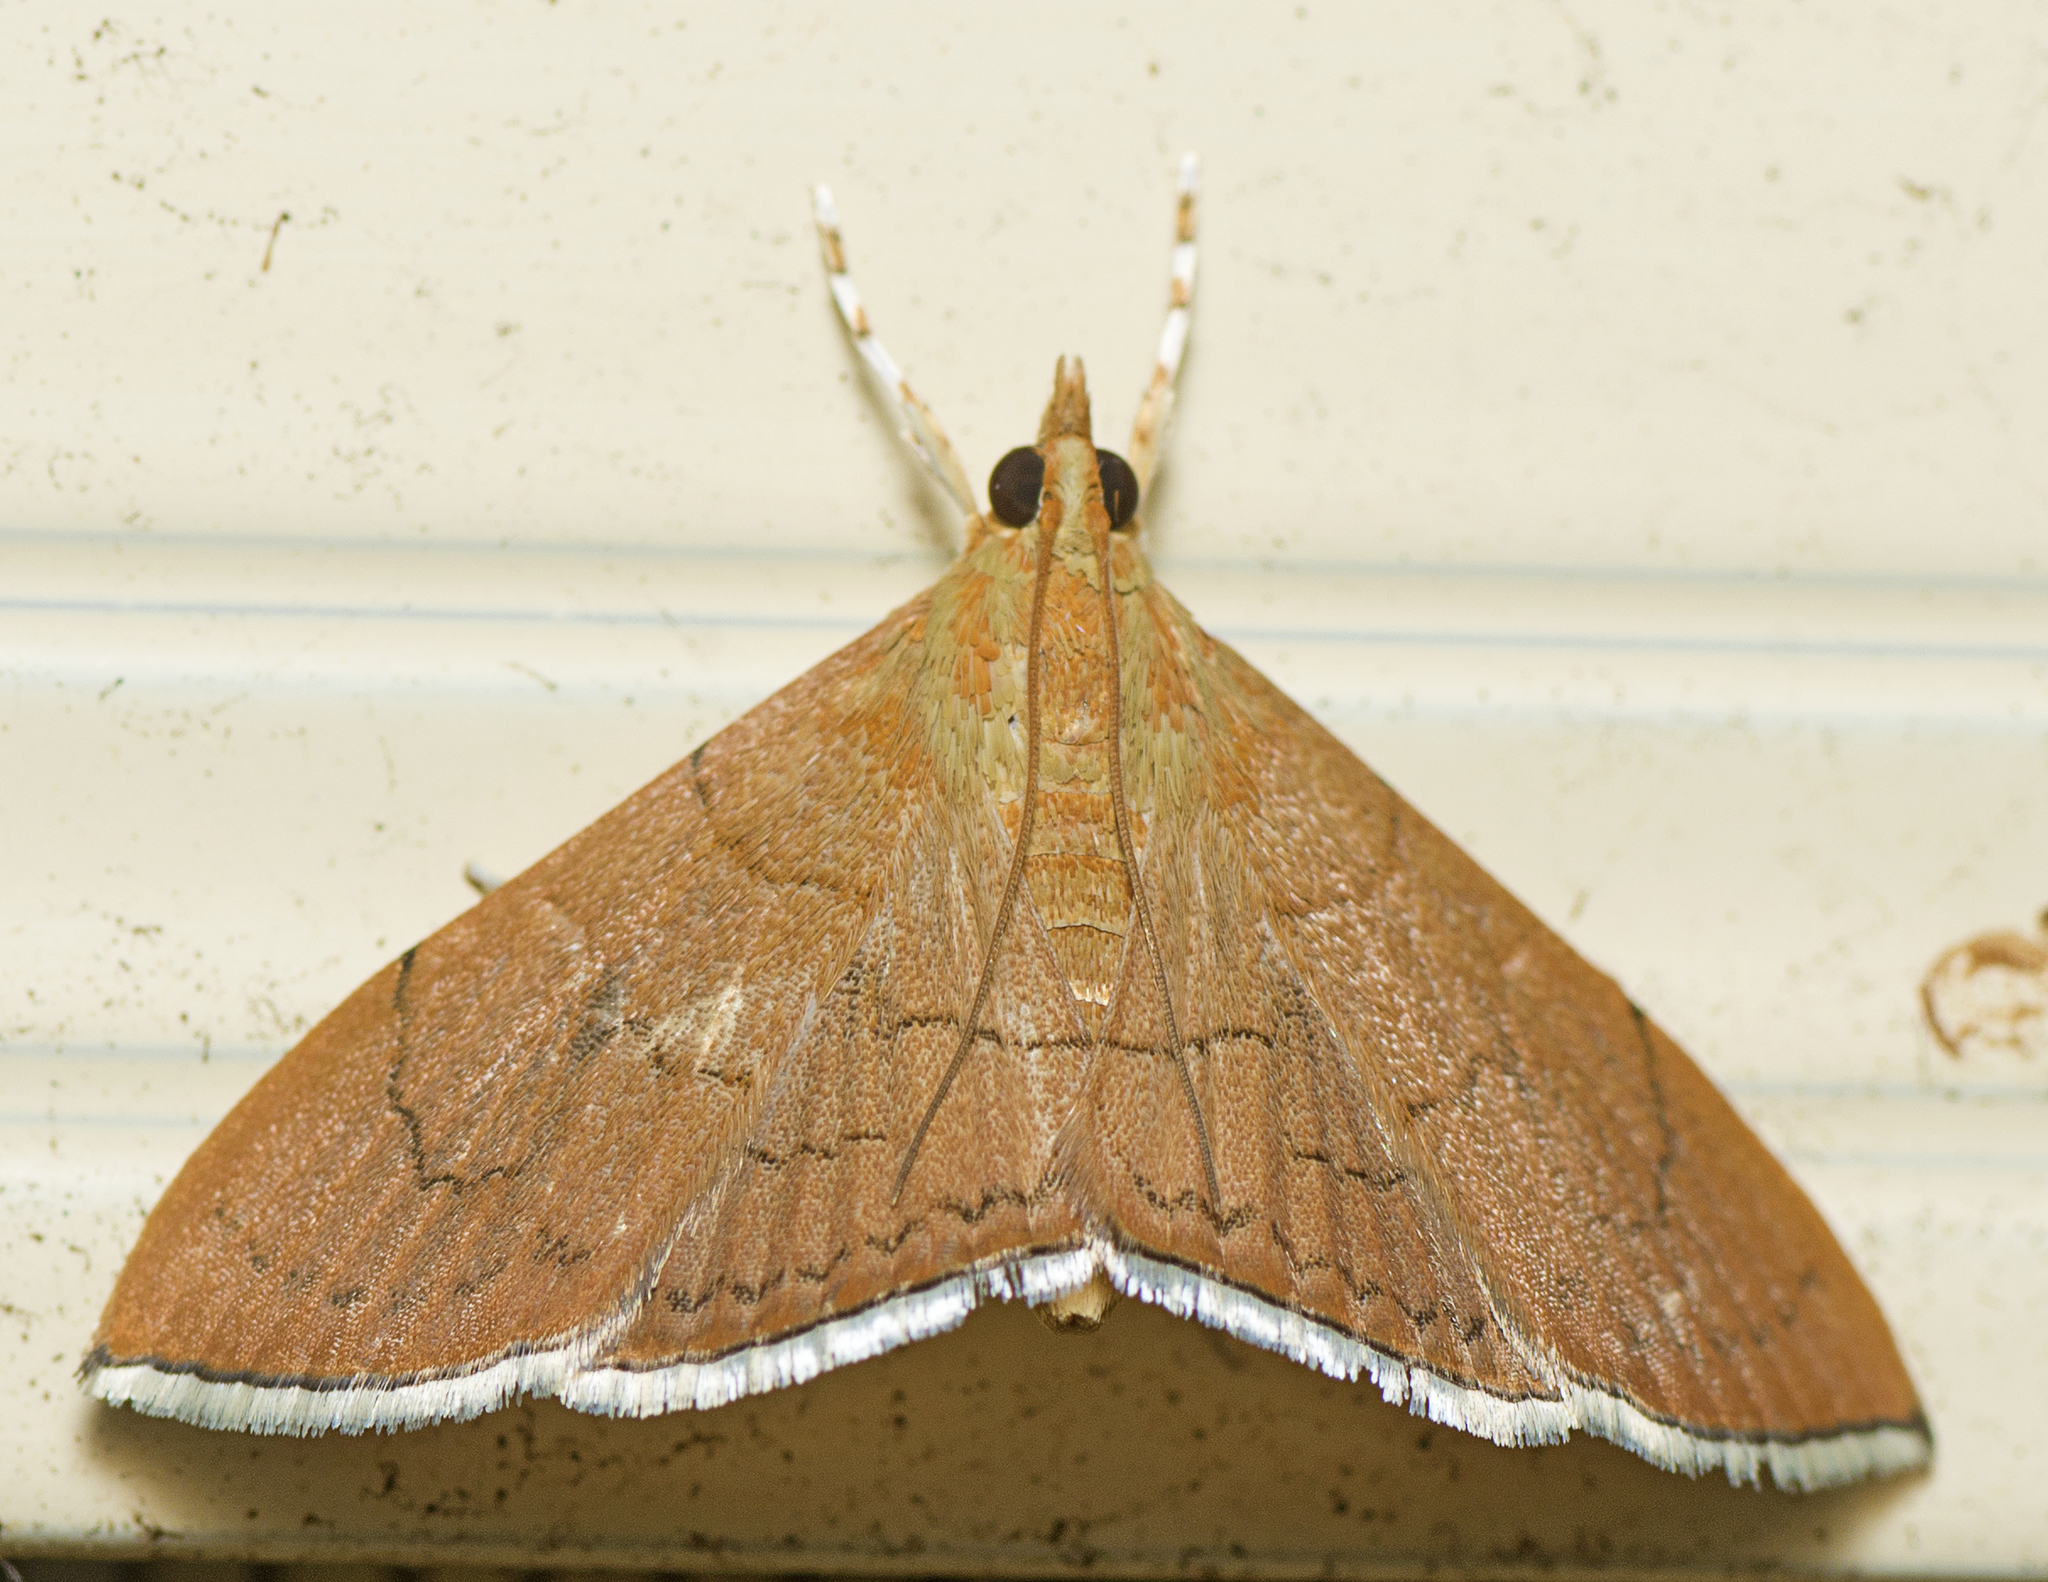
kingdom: Animalia
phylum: Arthropoda
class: Insecta
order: Lepidoptera
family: Crambidae
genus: Hyalobathra
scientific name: Hyalobathra
